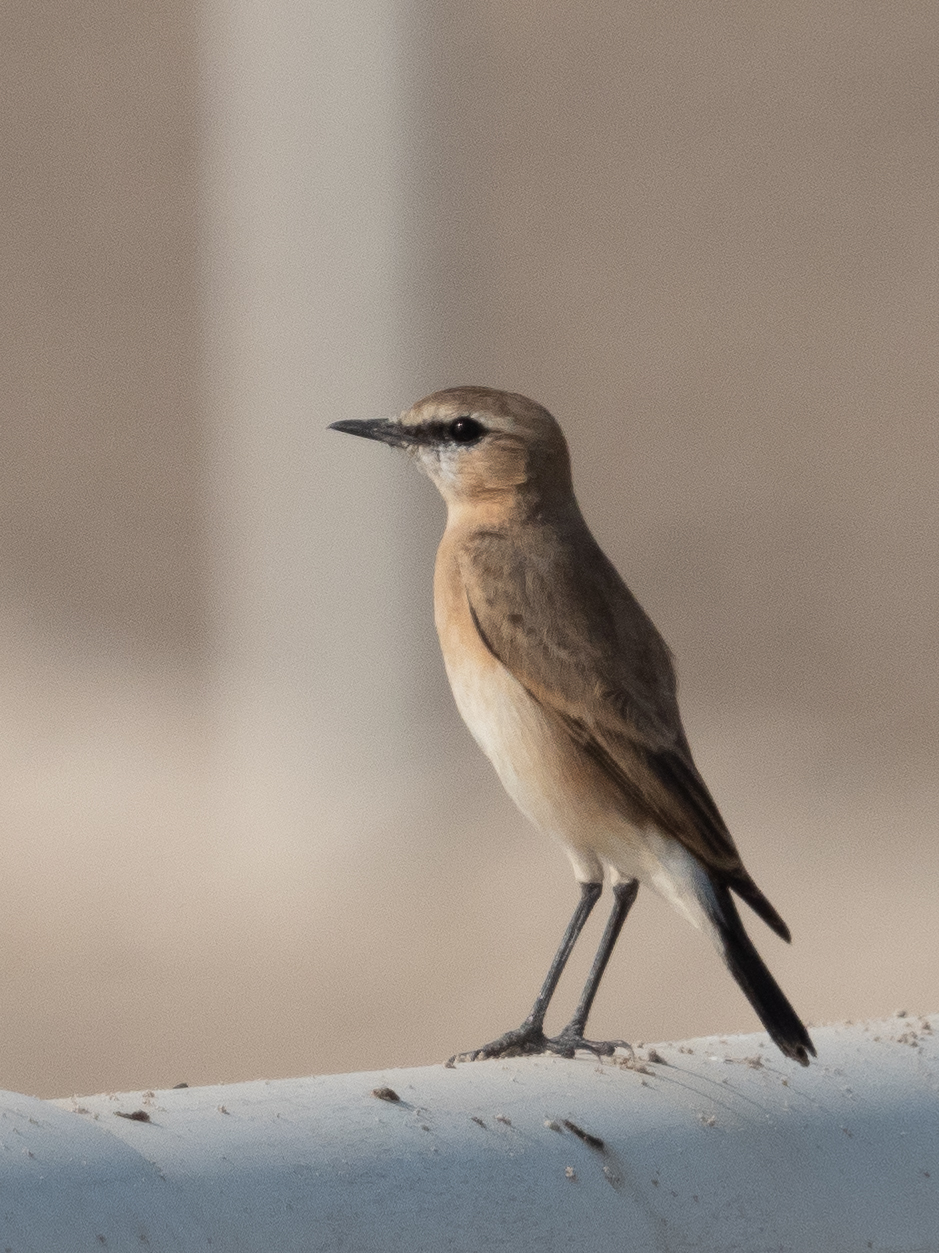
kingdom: Animalia
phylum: Chordata
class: Aves
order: Passeriformes
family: Muscicapidae
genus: Oenanthe
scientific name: Oenanthe isabellina
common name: Isabelline wheatear
